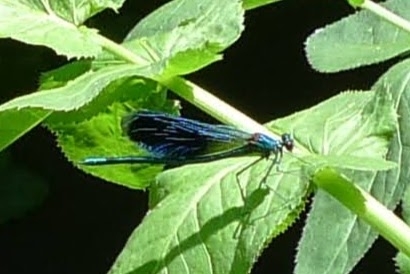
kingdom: Animalia
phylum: Arthropoda
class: Insecta
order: Odonata
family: Calopterygidae
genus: Calopteryx
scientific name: Calopteryx splendens
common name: Banded demoiselle
